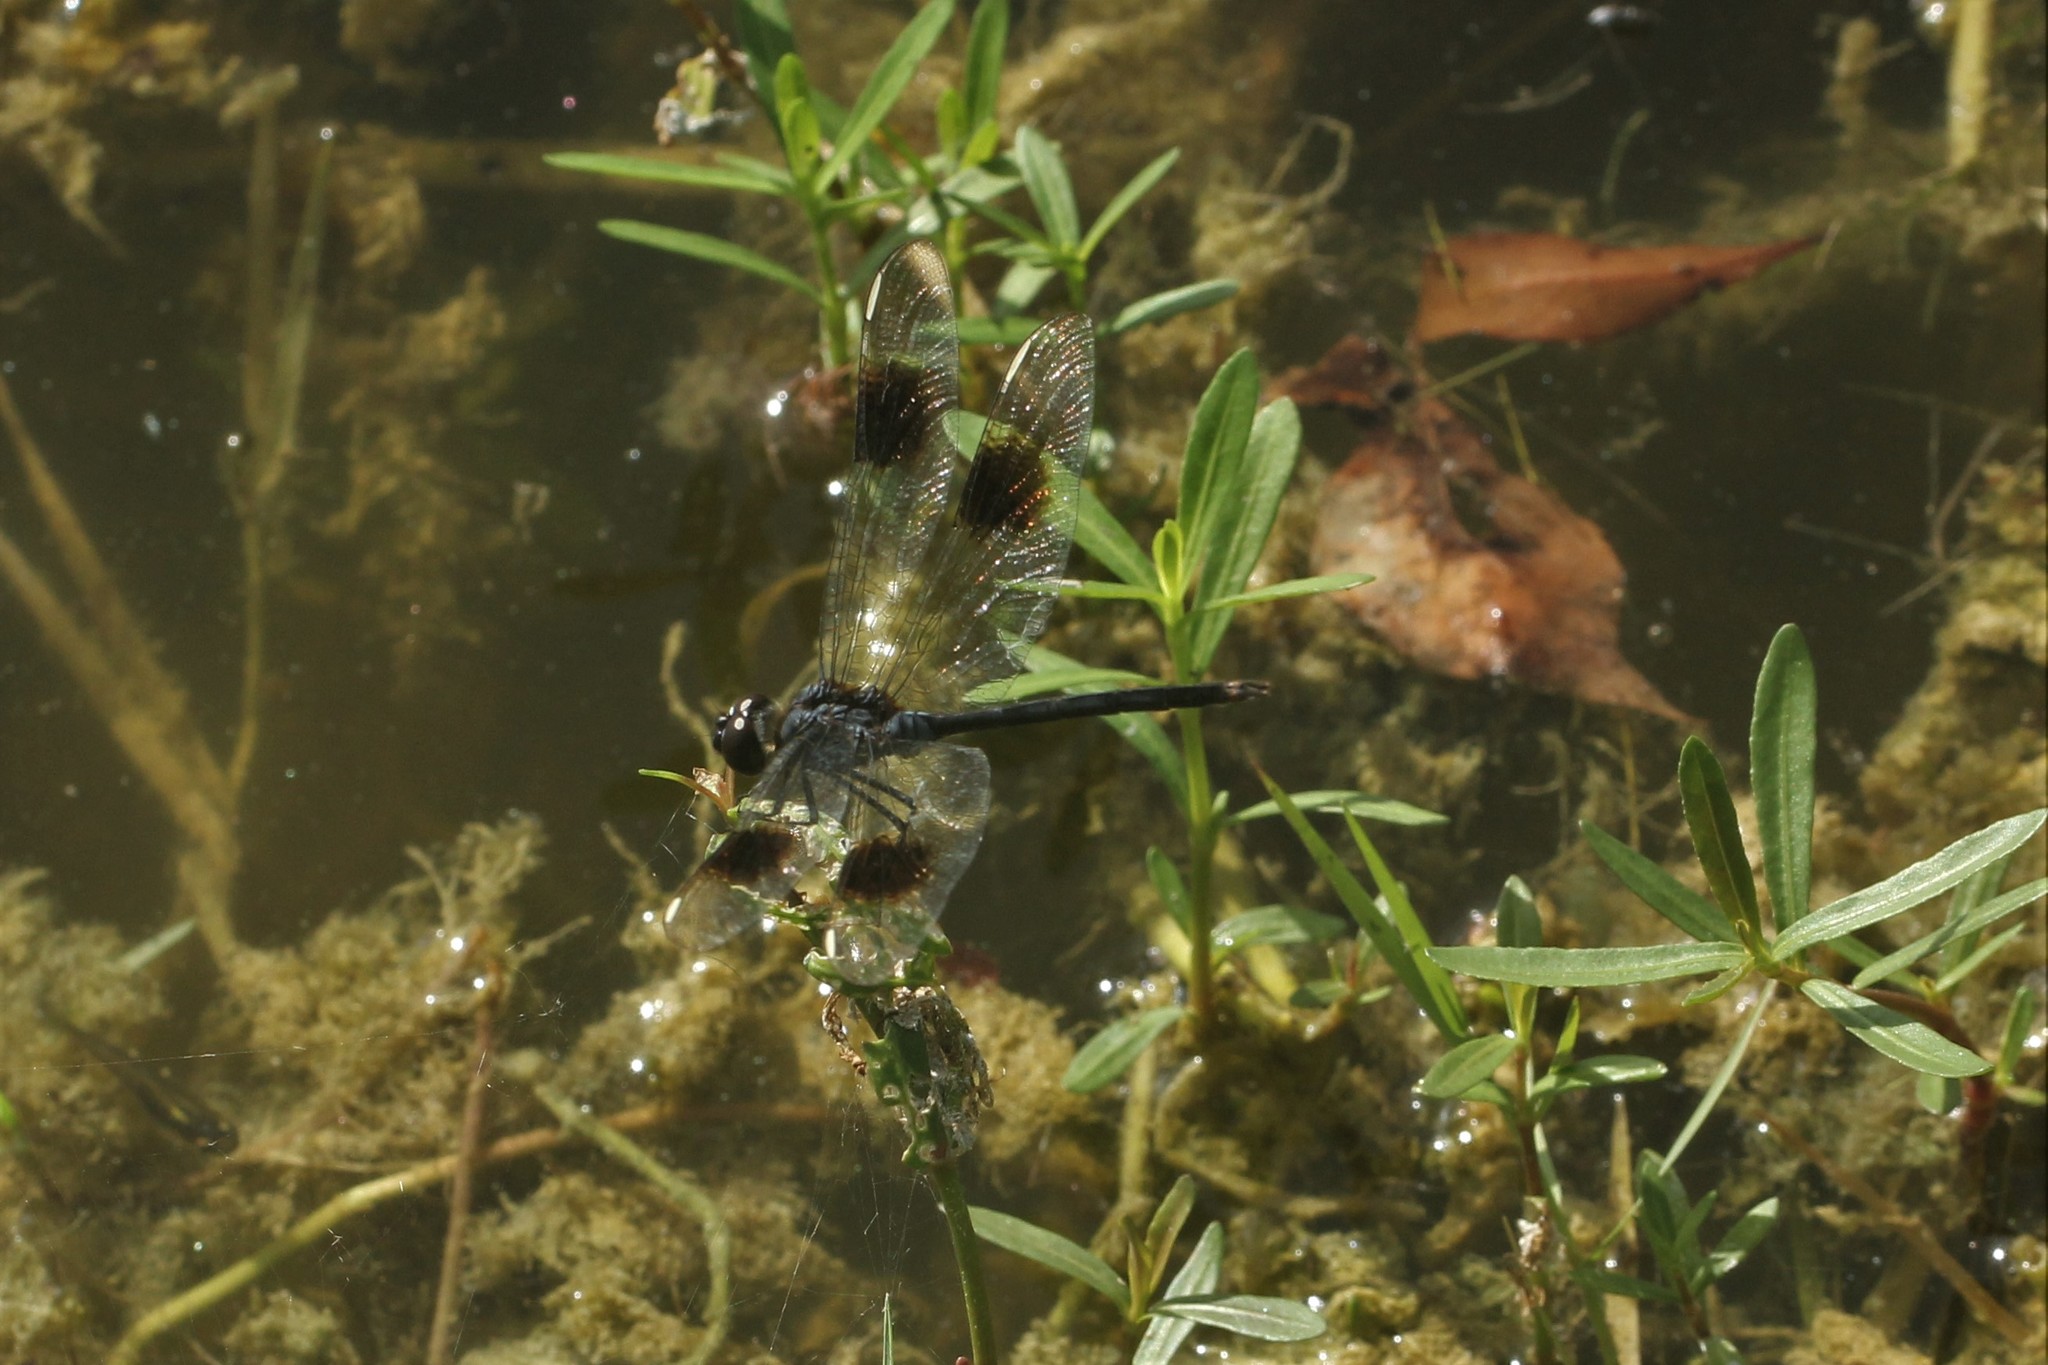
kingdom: Animalia
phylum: Arthropoda
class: Insecta
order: Odonata
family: Libellulidae
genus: Brachymesia
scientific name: Brachymesia gravida
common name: Four-spotted pennant
